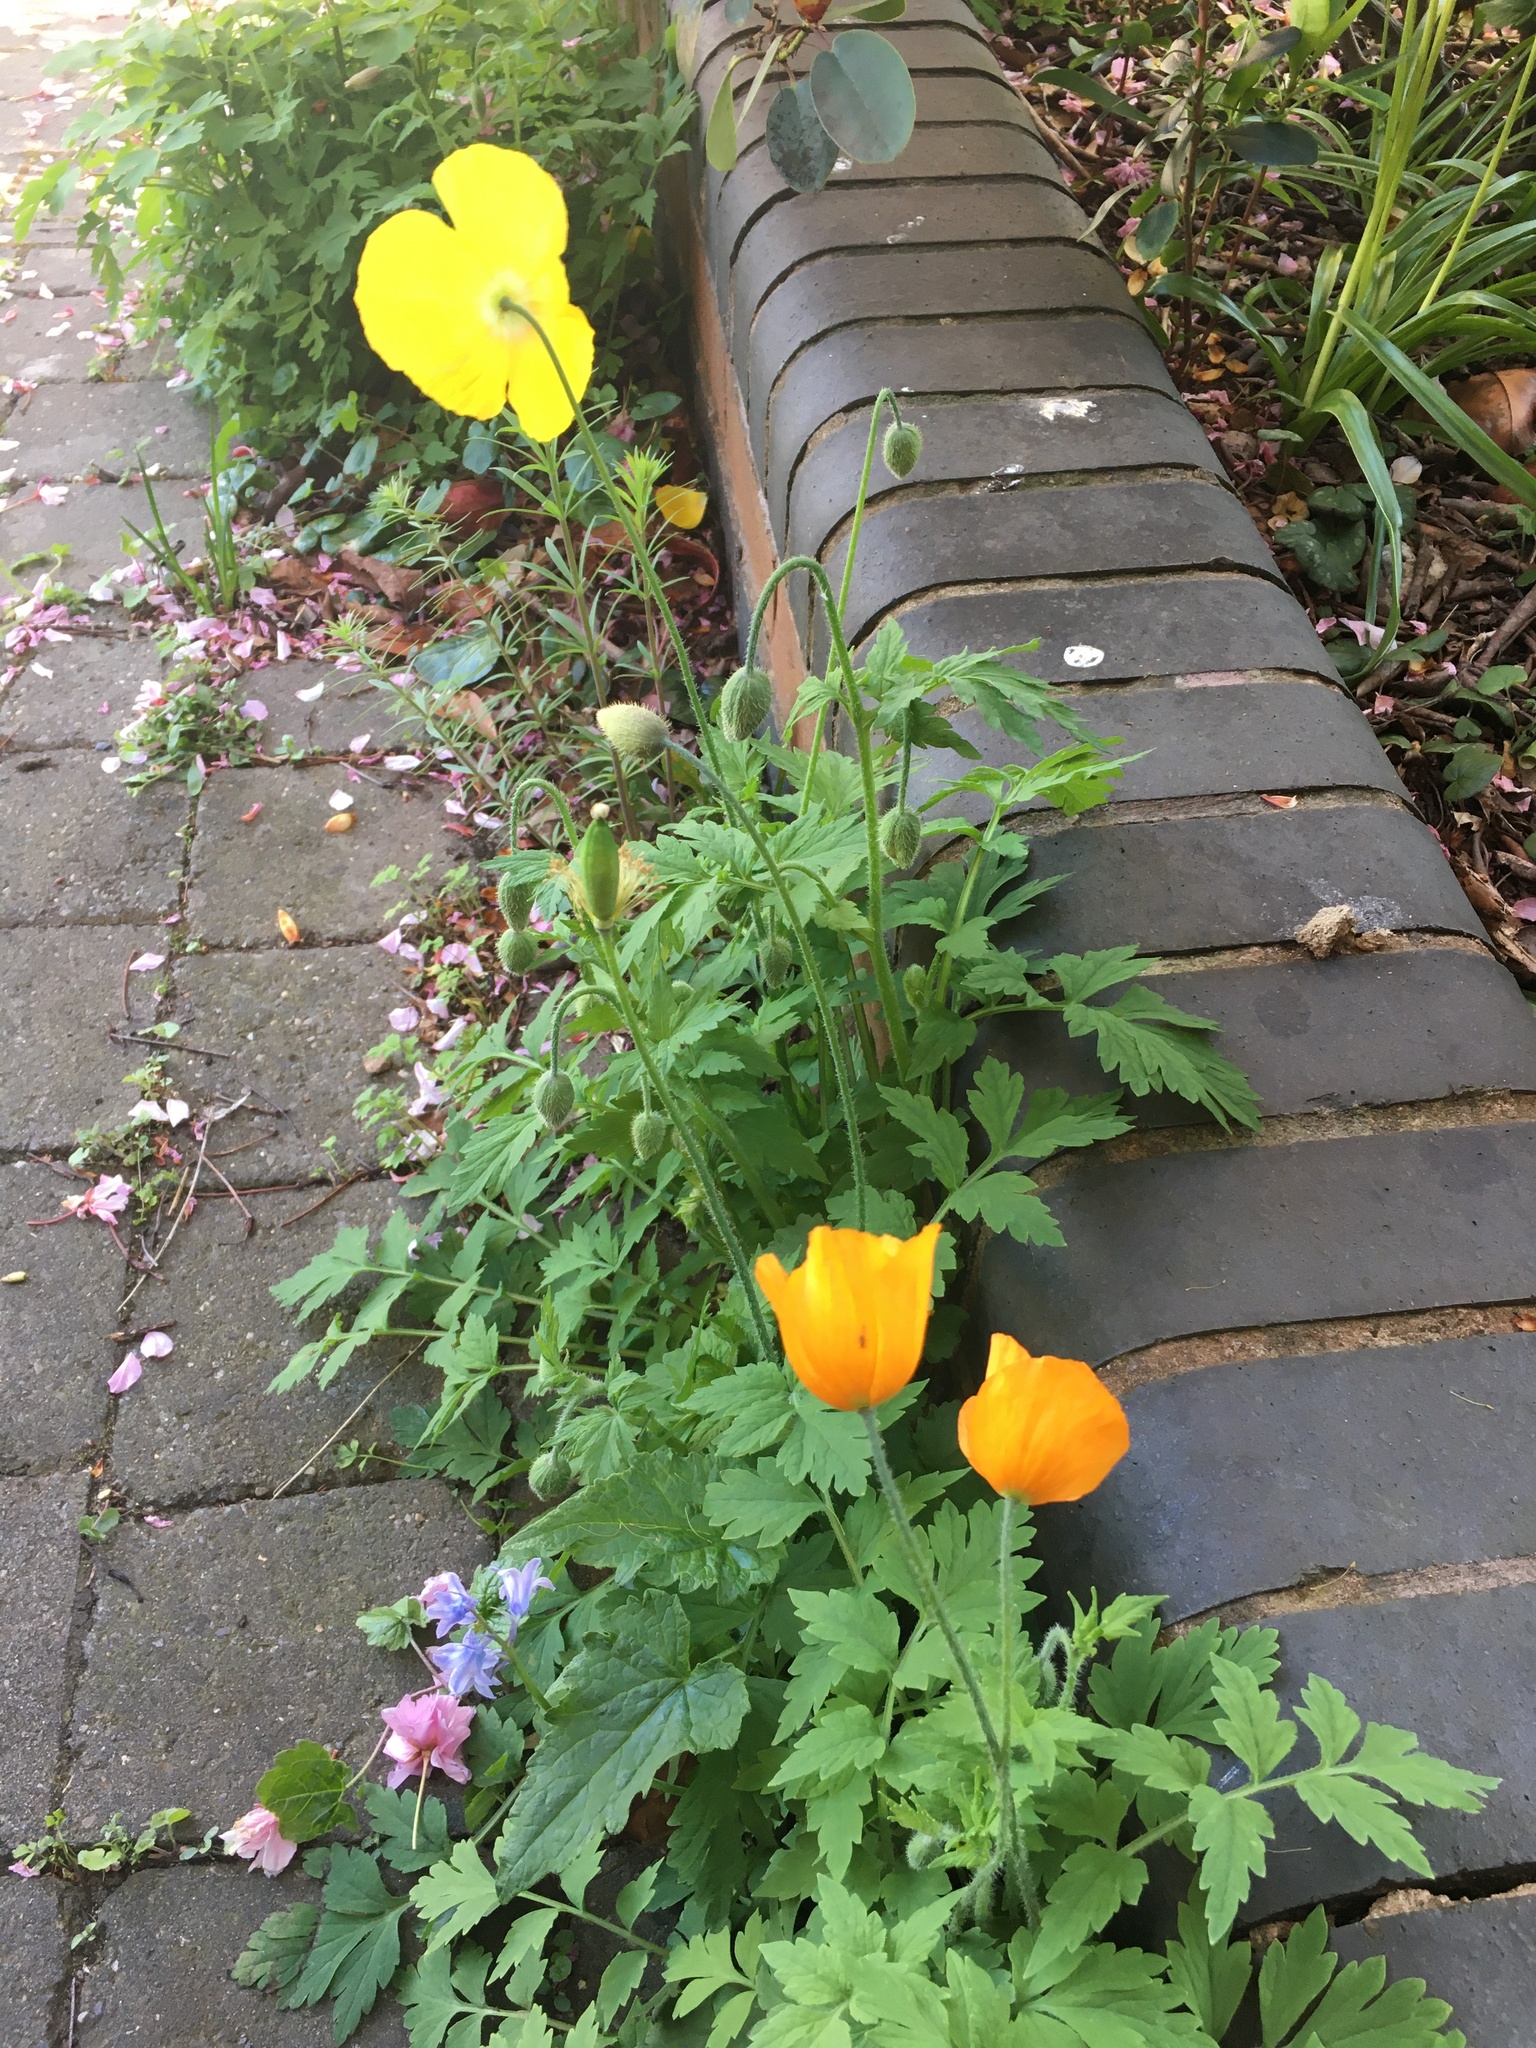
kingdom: Plantae
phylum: Tracheophyta
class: Magnoliopsida
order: Ranunculales
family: Papaveraceae
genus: Papaver
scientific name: Papaver cambricum
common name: Poppy
